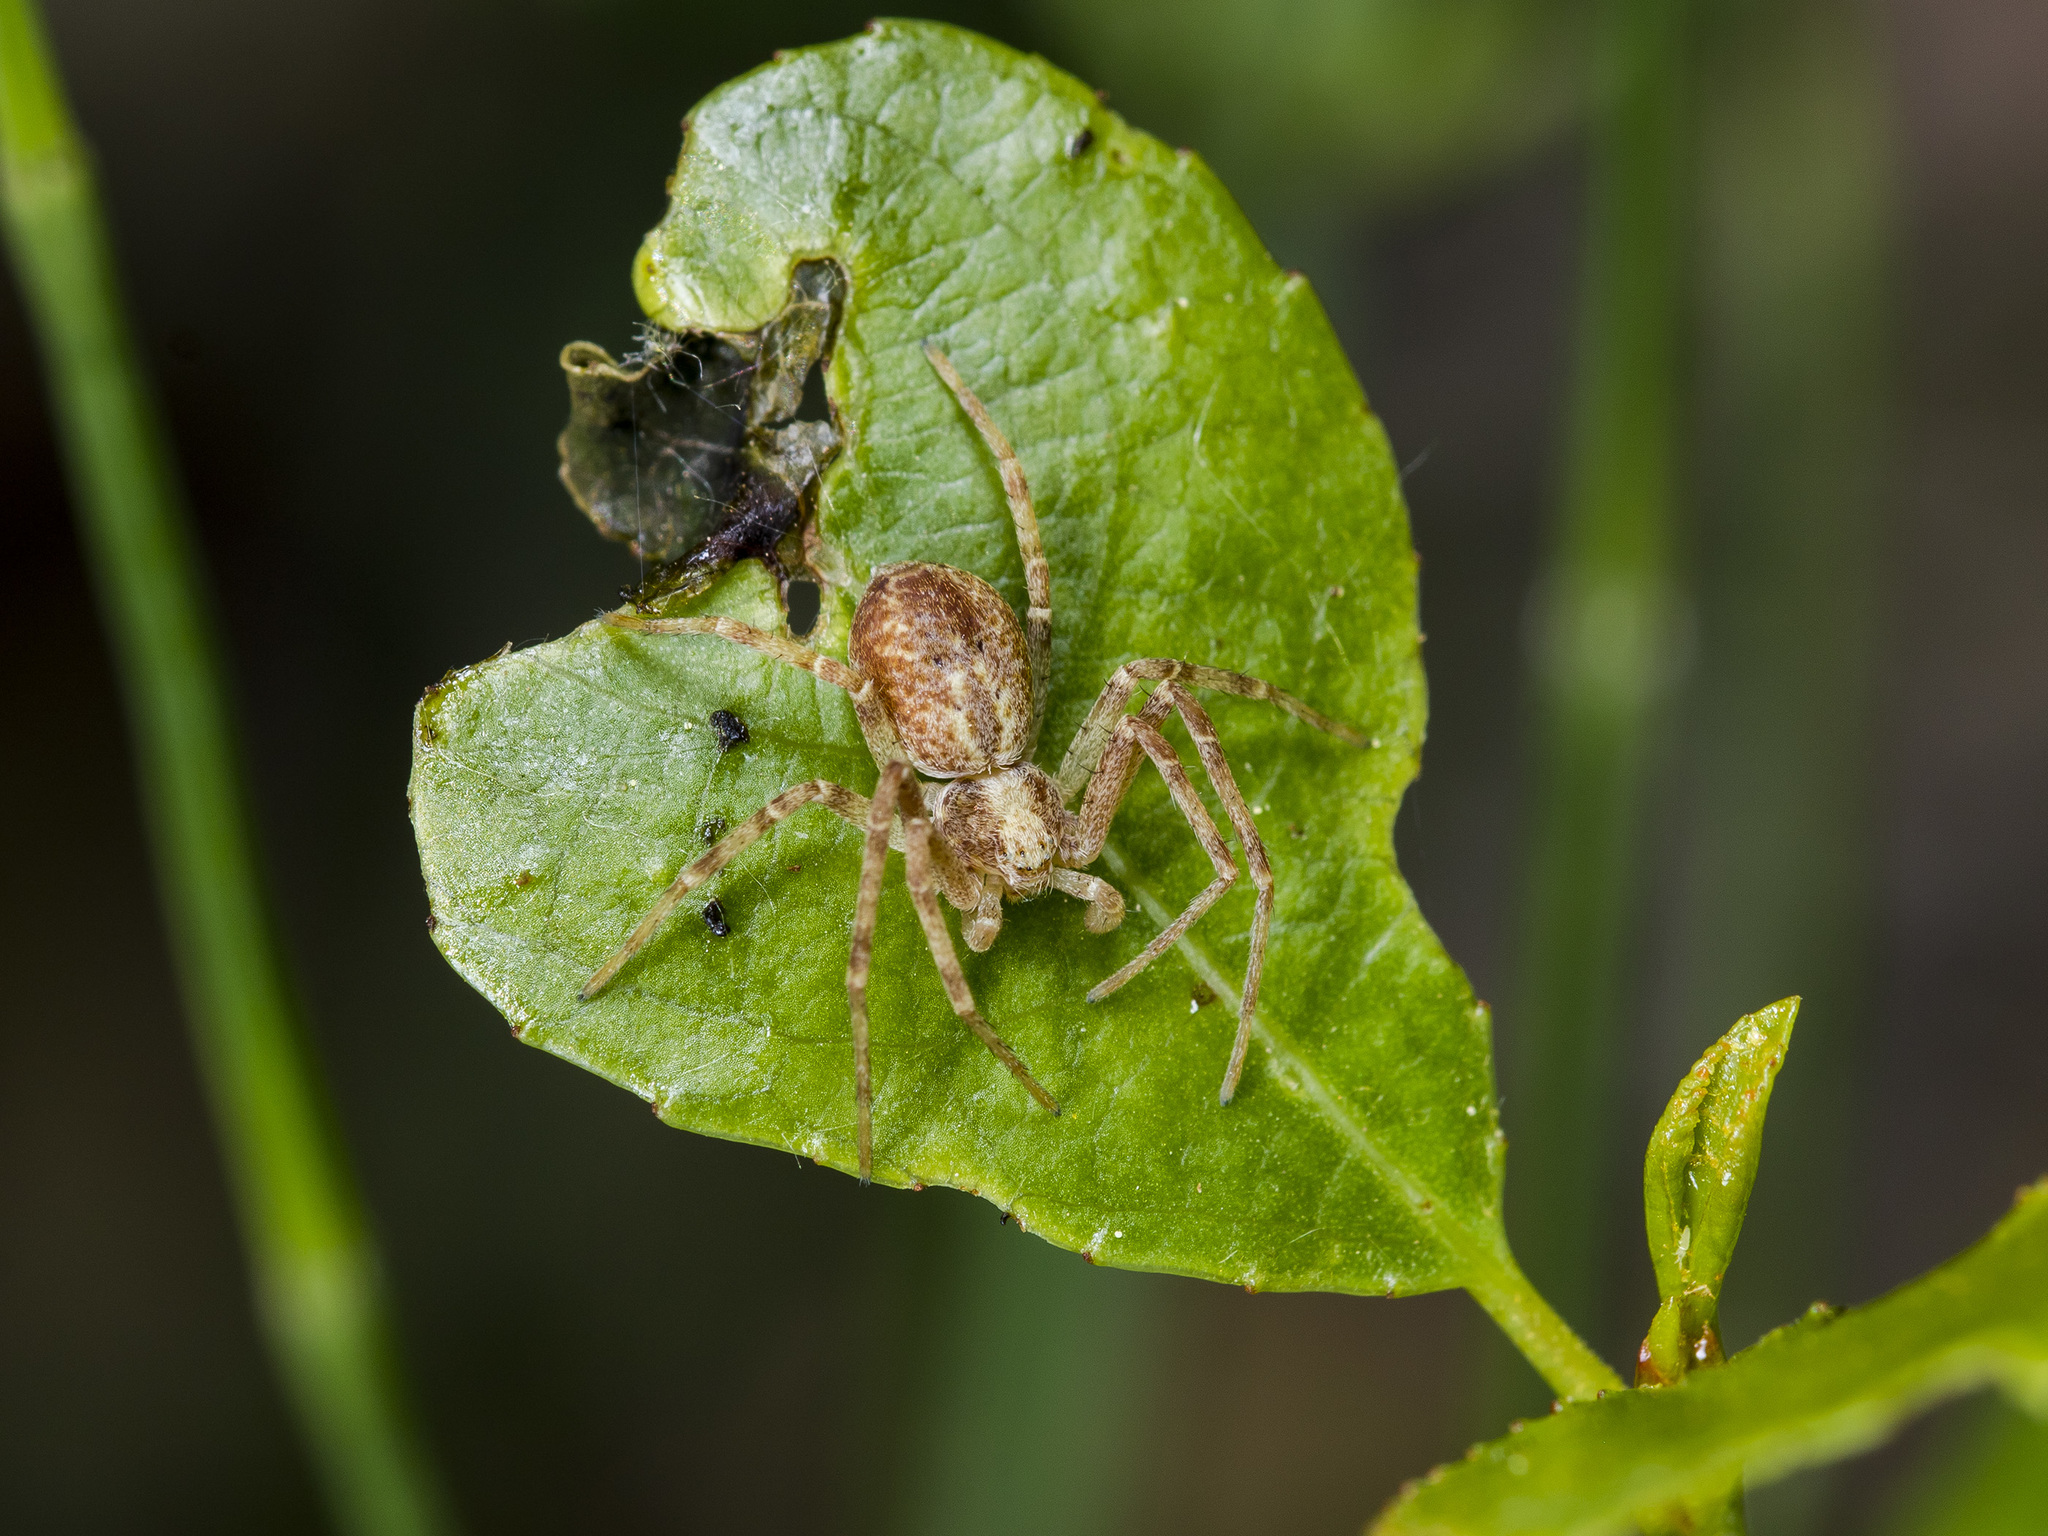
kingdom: Animalia
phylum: Arthropoda
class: Arachnida
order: Araneae
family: Philodromidae
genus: Philodromus
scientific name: Philodromus cespitum
